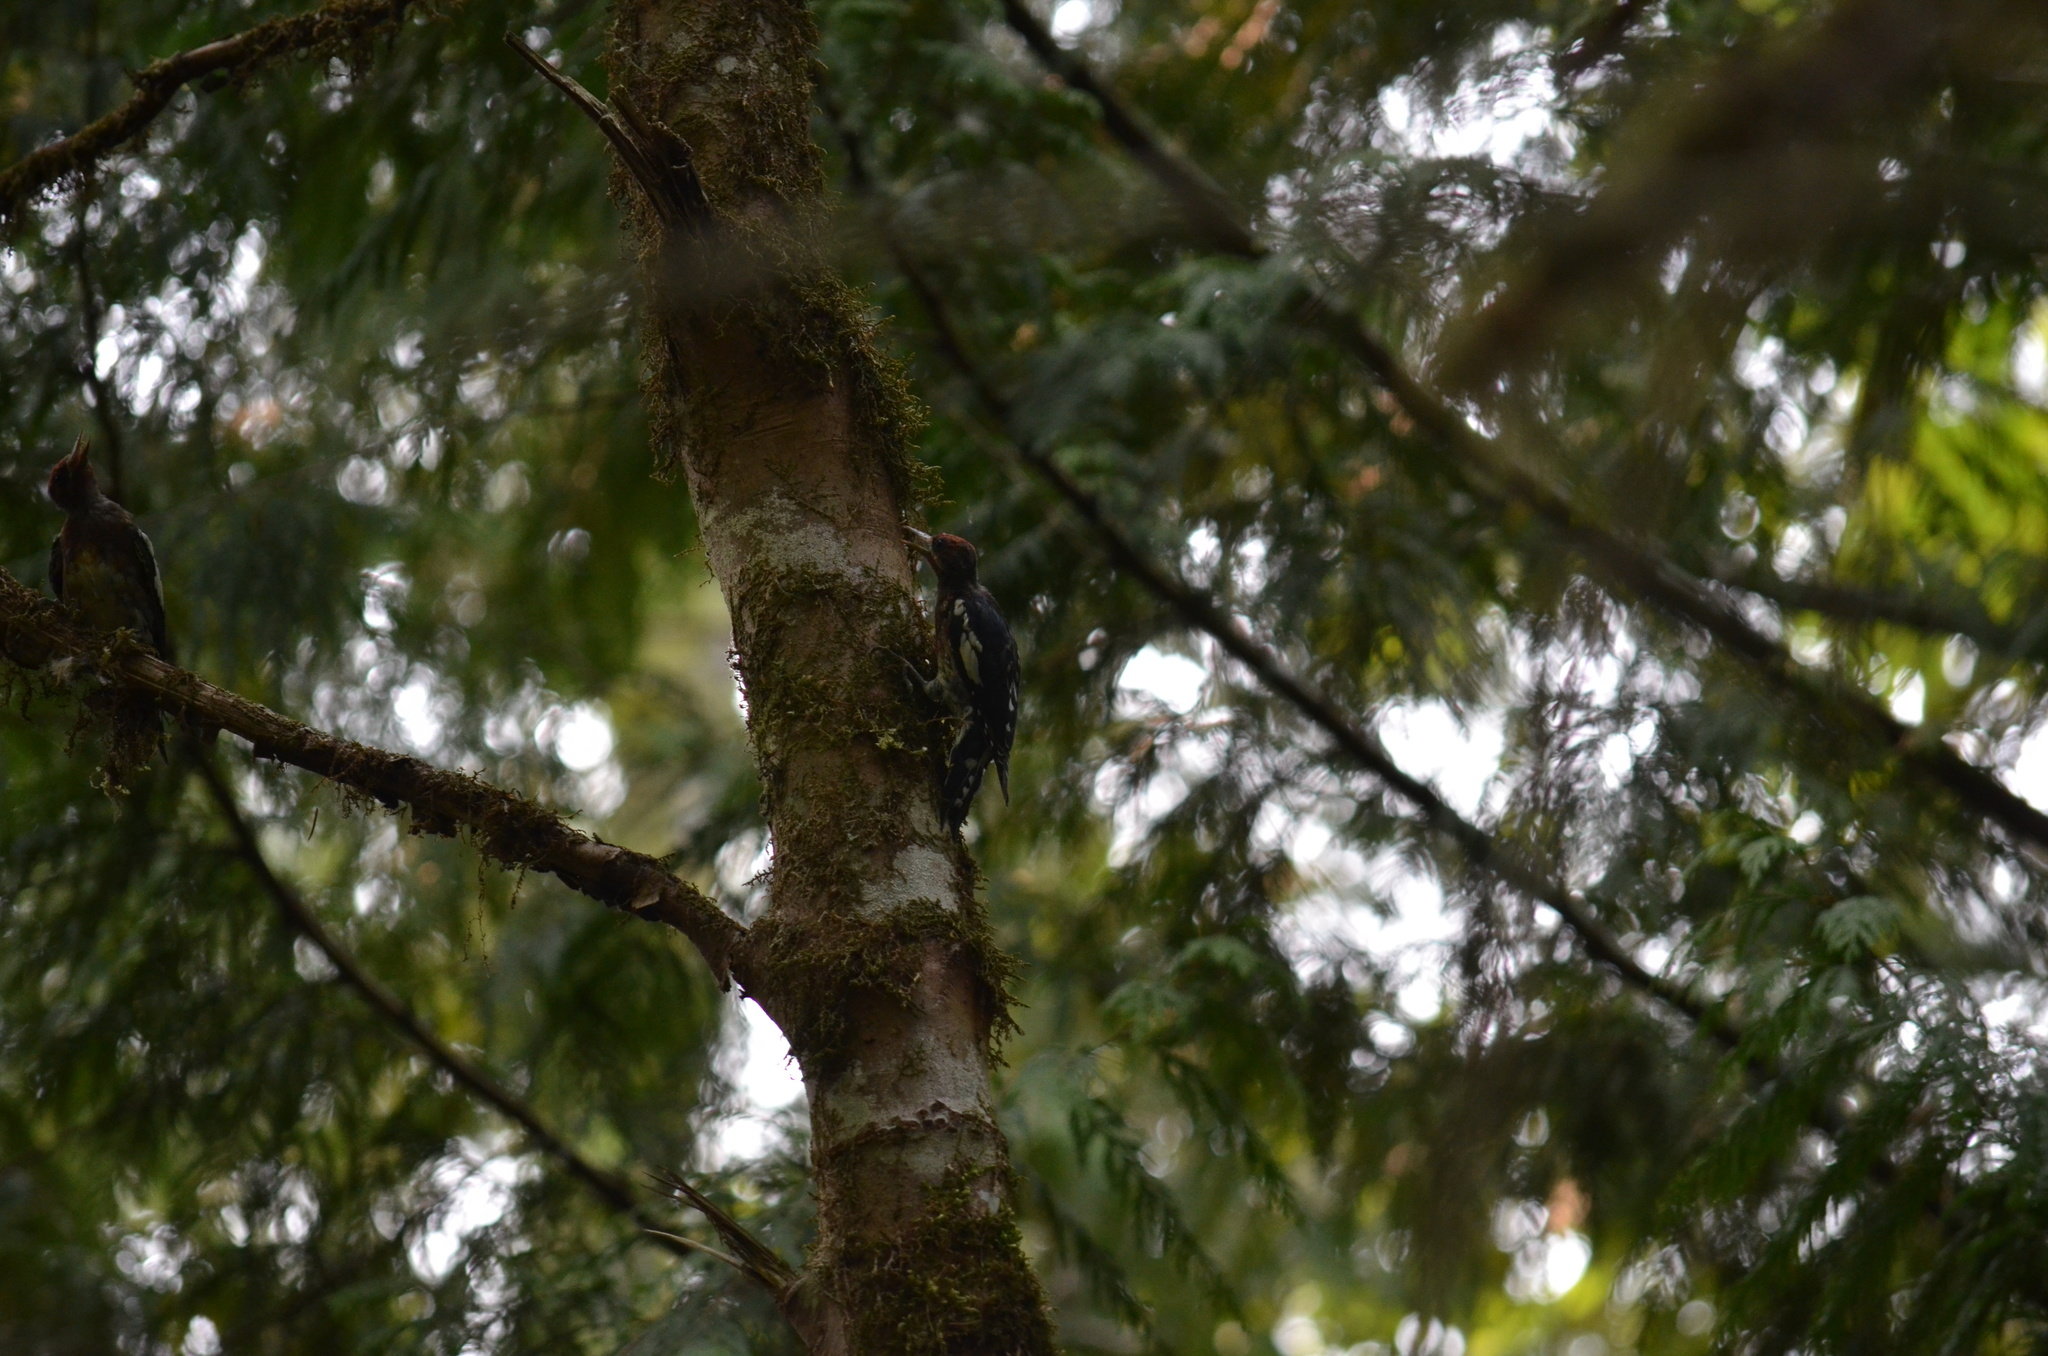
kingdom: Animalia
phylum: Chordata
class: Aves
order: Piciformes
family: Picidae
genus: Sphyrapicus
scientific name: Sphyrapicus ruber
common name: Red-breasted sapsucker
